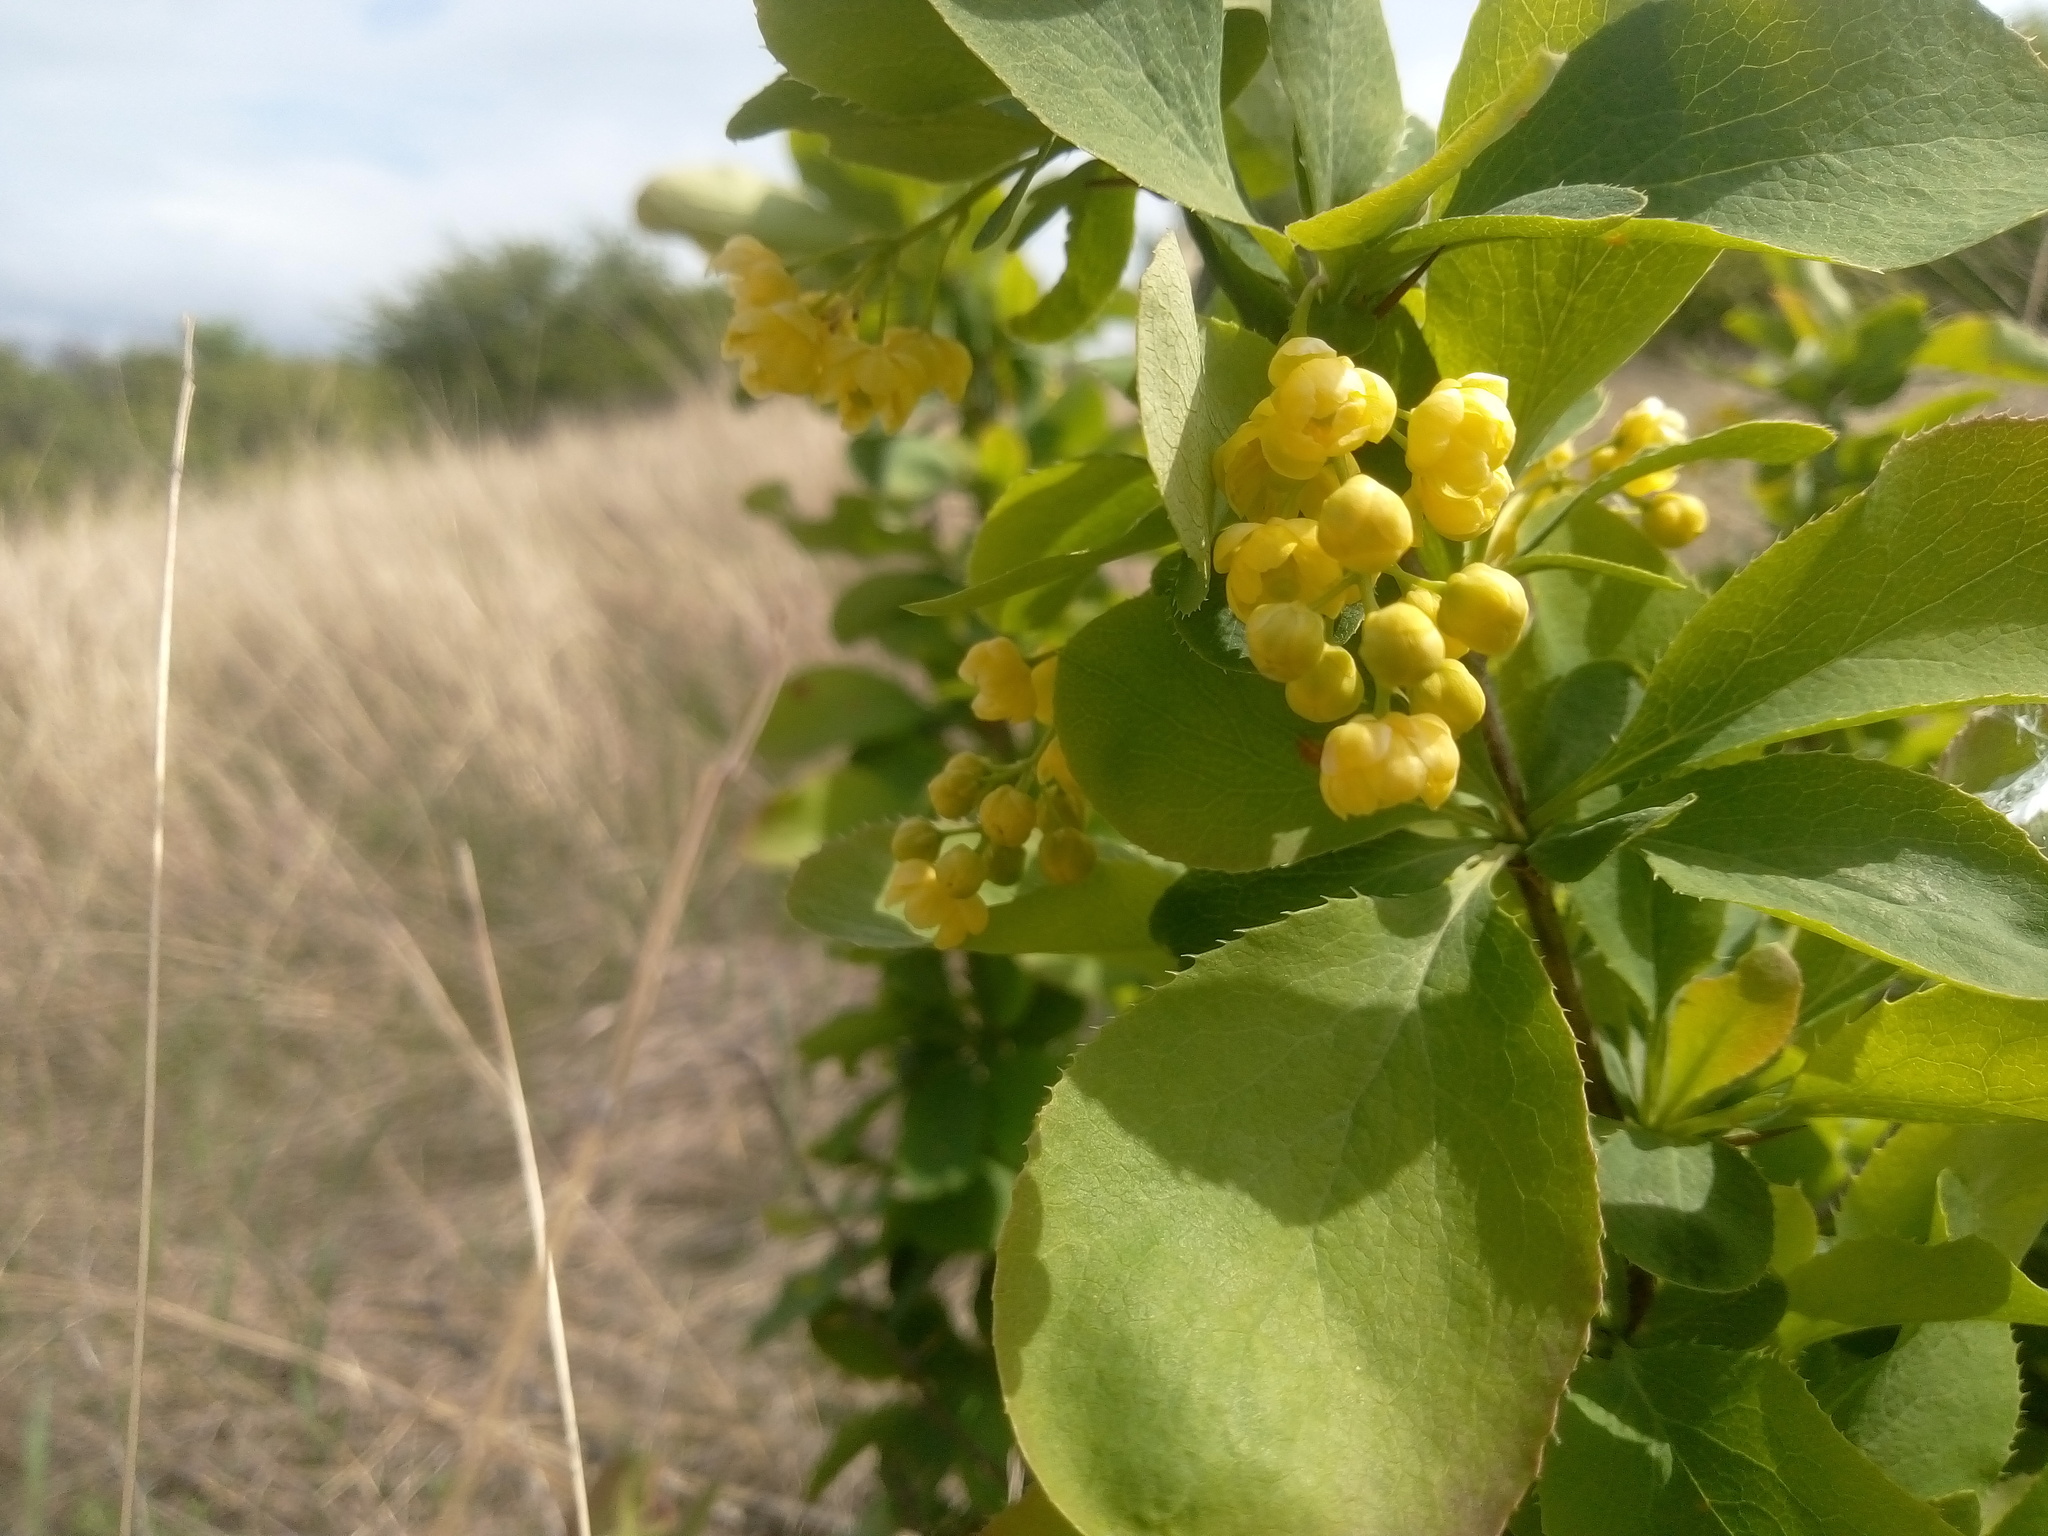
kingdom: Plantae
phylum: Tracheophyta
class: Magnoliopsida
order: Ranunculales
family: Berberidaceae
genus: Berberis
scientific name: Berberis vulgaris
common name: Barberry
